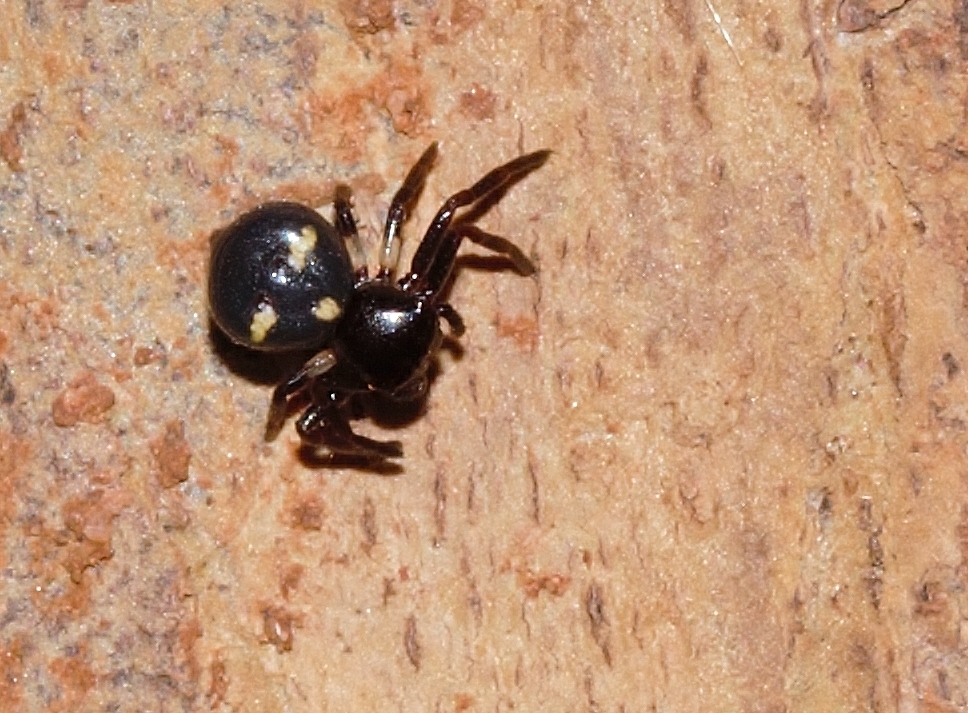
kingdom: Animalia
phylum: Arthropoda
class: Arachnida
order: Araneae
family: Thomisidae
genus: Pactactes
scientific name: Pactactes trimaculatus
